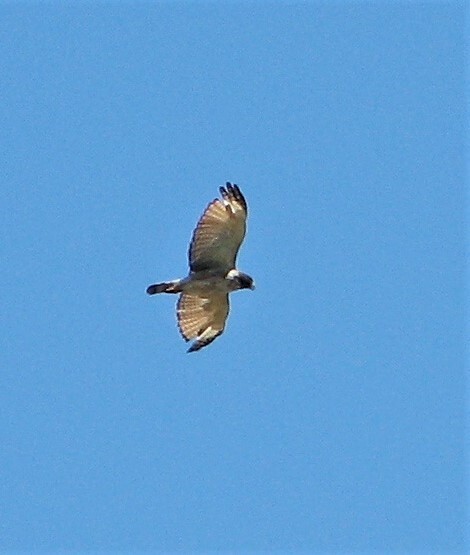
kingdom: Animalia
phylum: Chordata
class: Aves
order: Accipitriformes
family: Accipitridae
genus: Rupornis
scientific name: Rupornis magnirostris
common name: Roadside hawk
